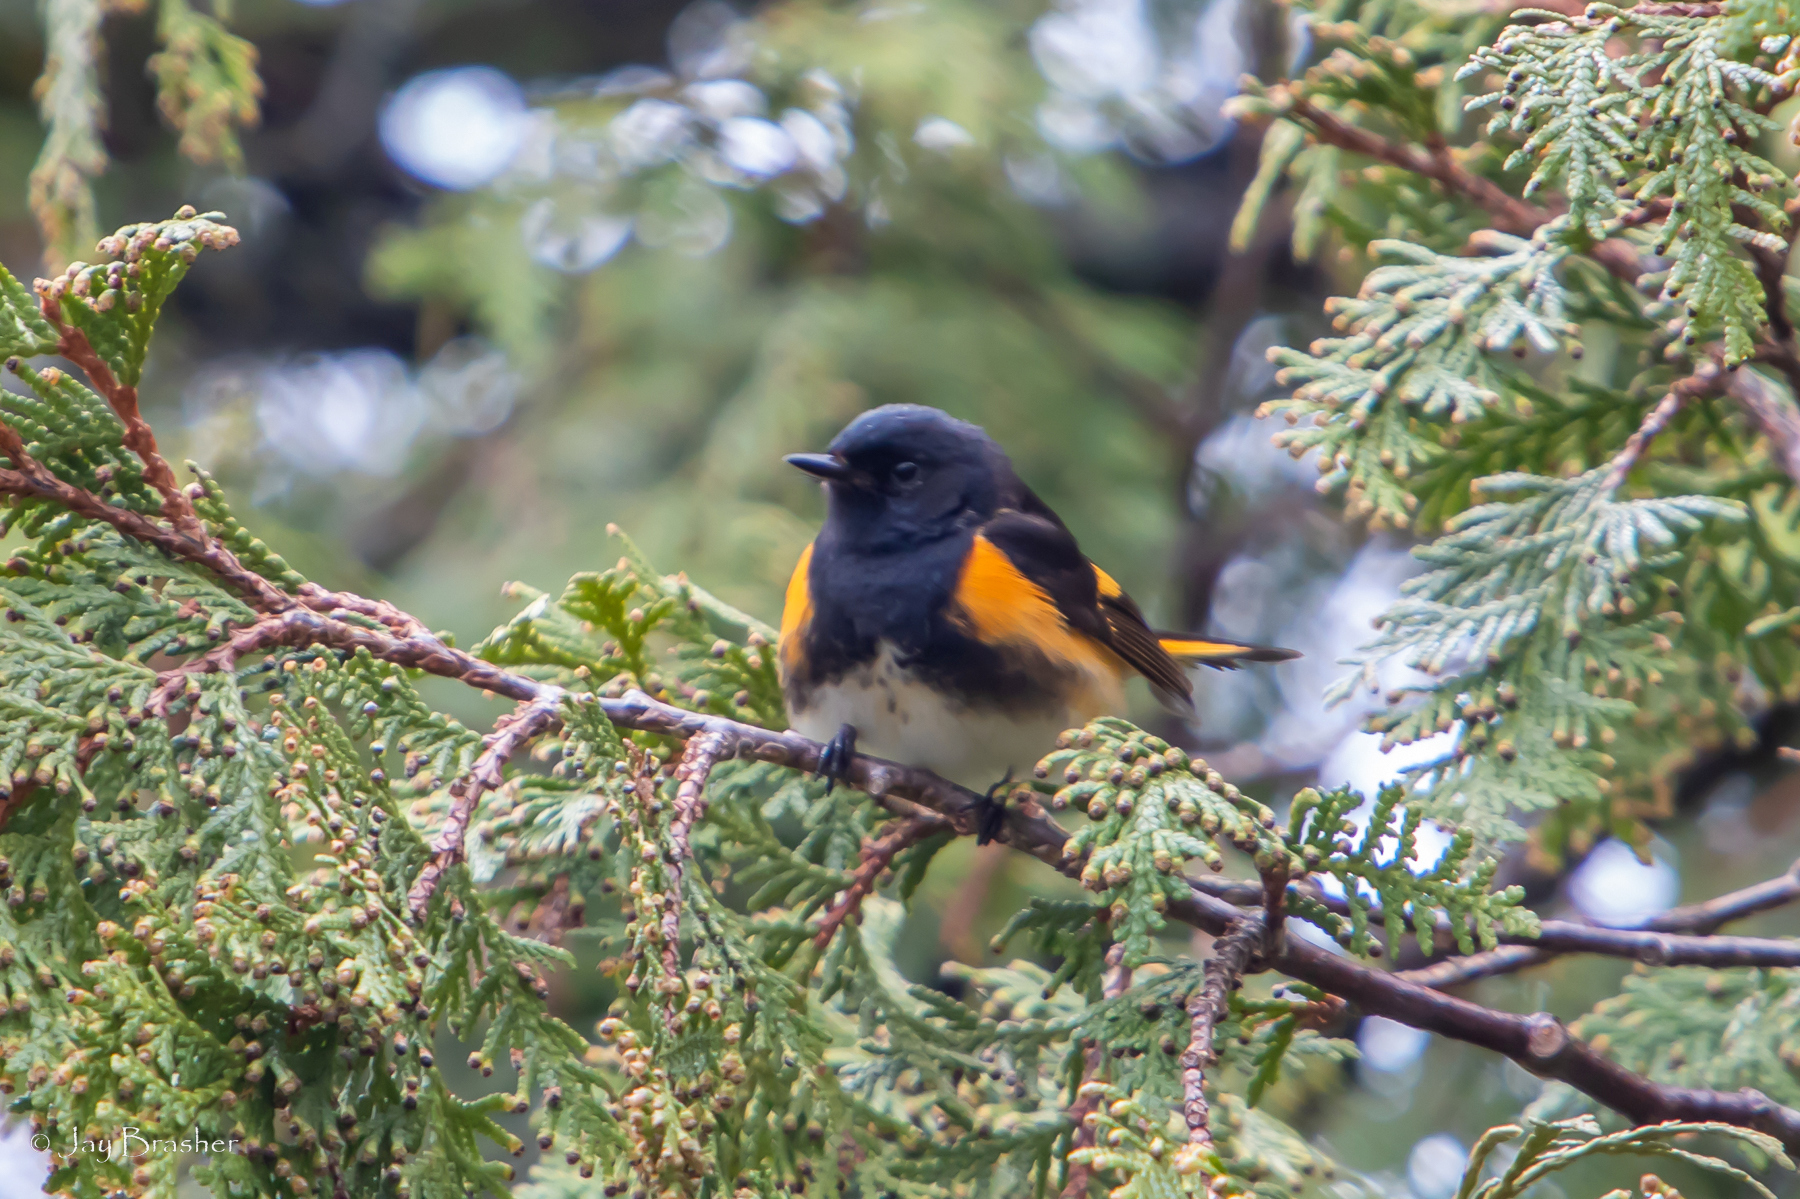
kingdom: Animalia
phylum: Chordata
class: Aves
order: Passeriformes
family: Parulidae
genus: Setophaga
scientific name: Setophaga ruticilla
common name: American redstart
